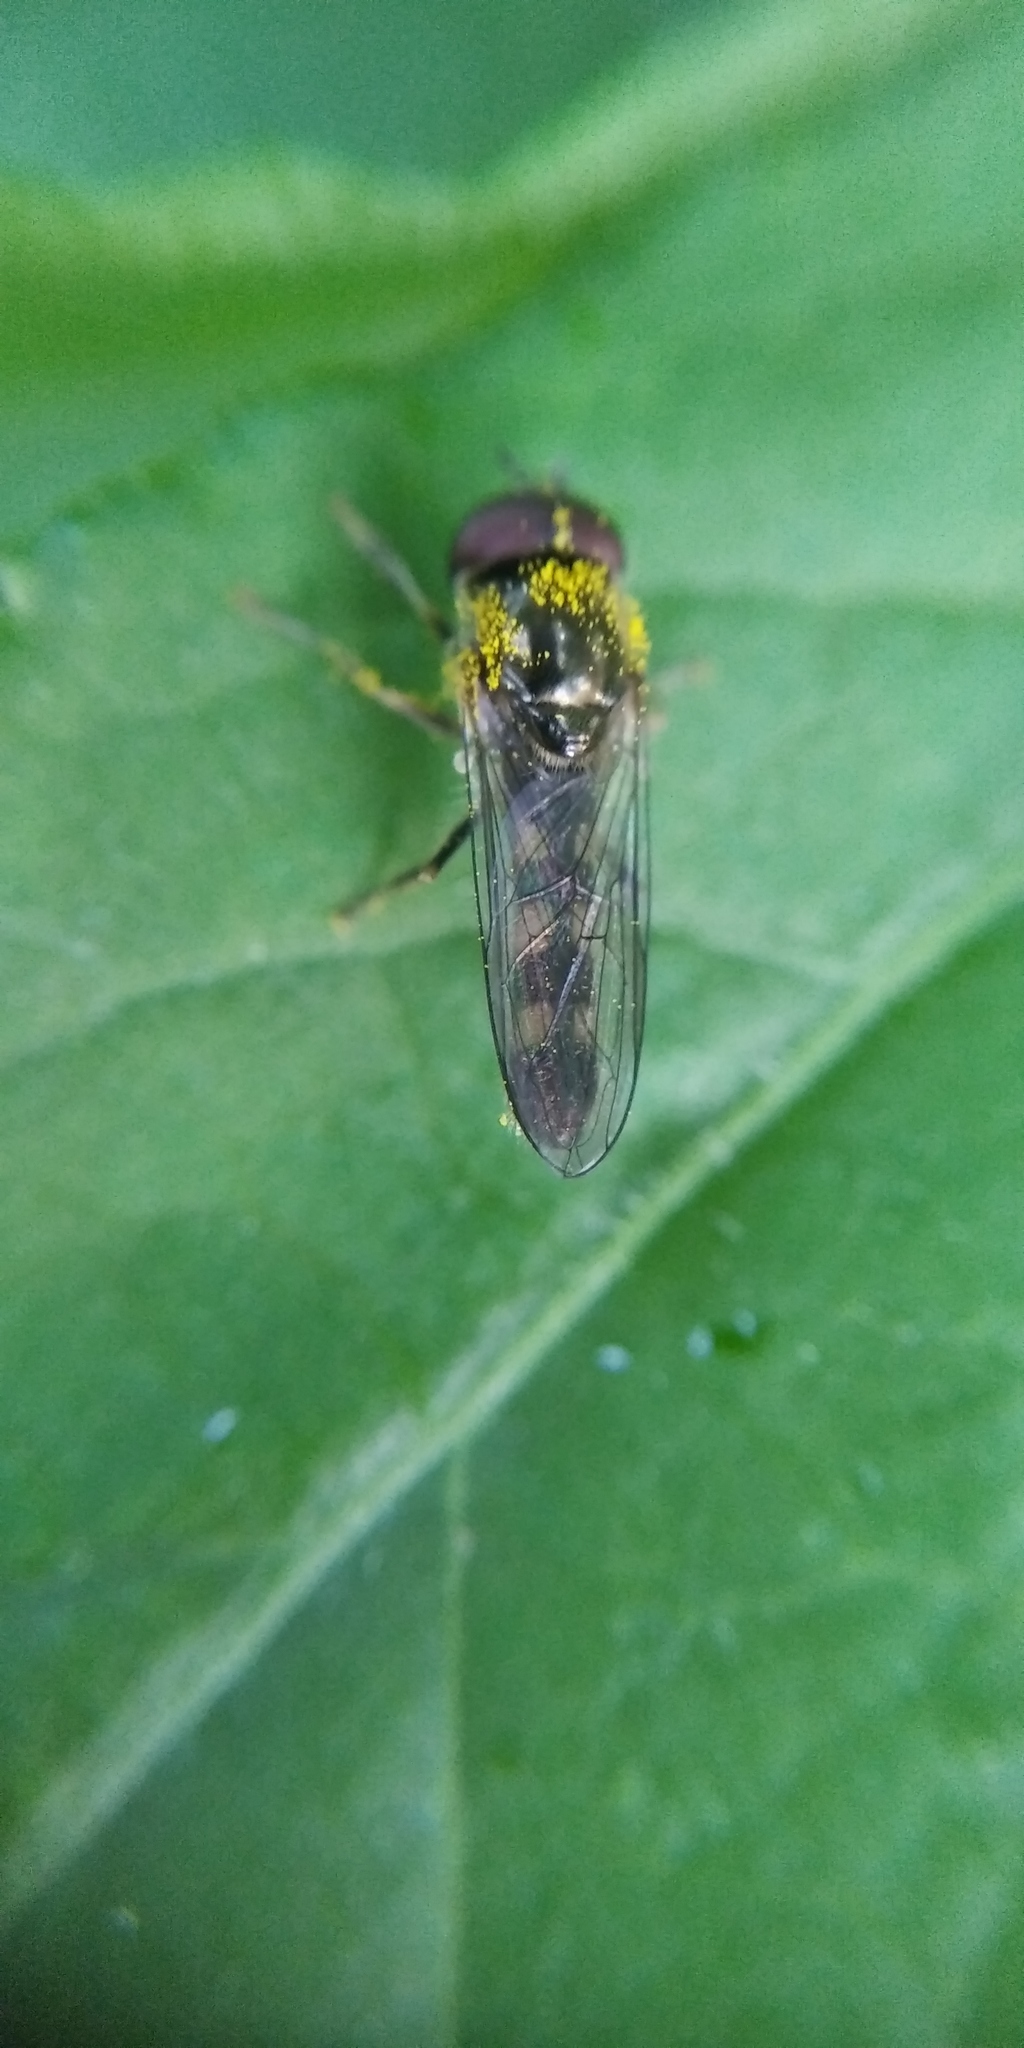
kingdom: Animalia
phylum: Arthropoda
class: Insecta
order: Diptera
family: Syrphidae
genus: Platycheirus
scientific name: Platycheirus
